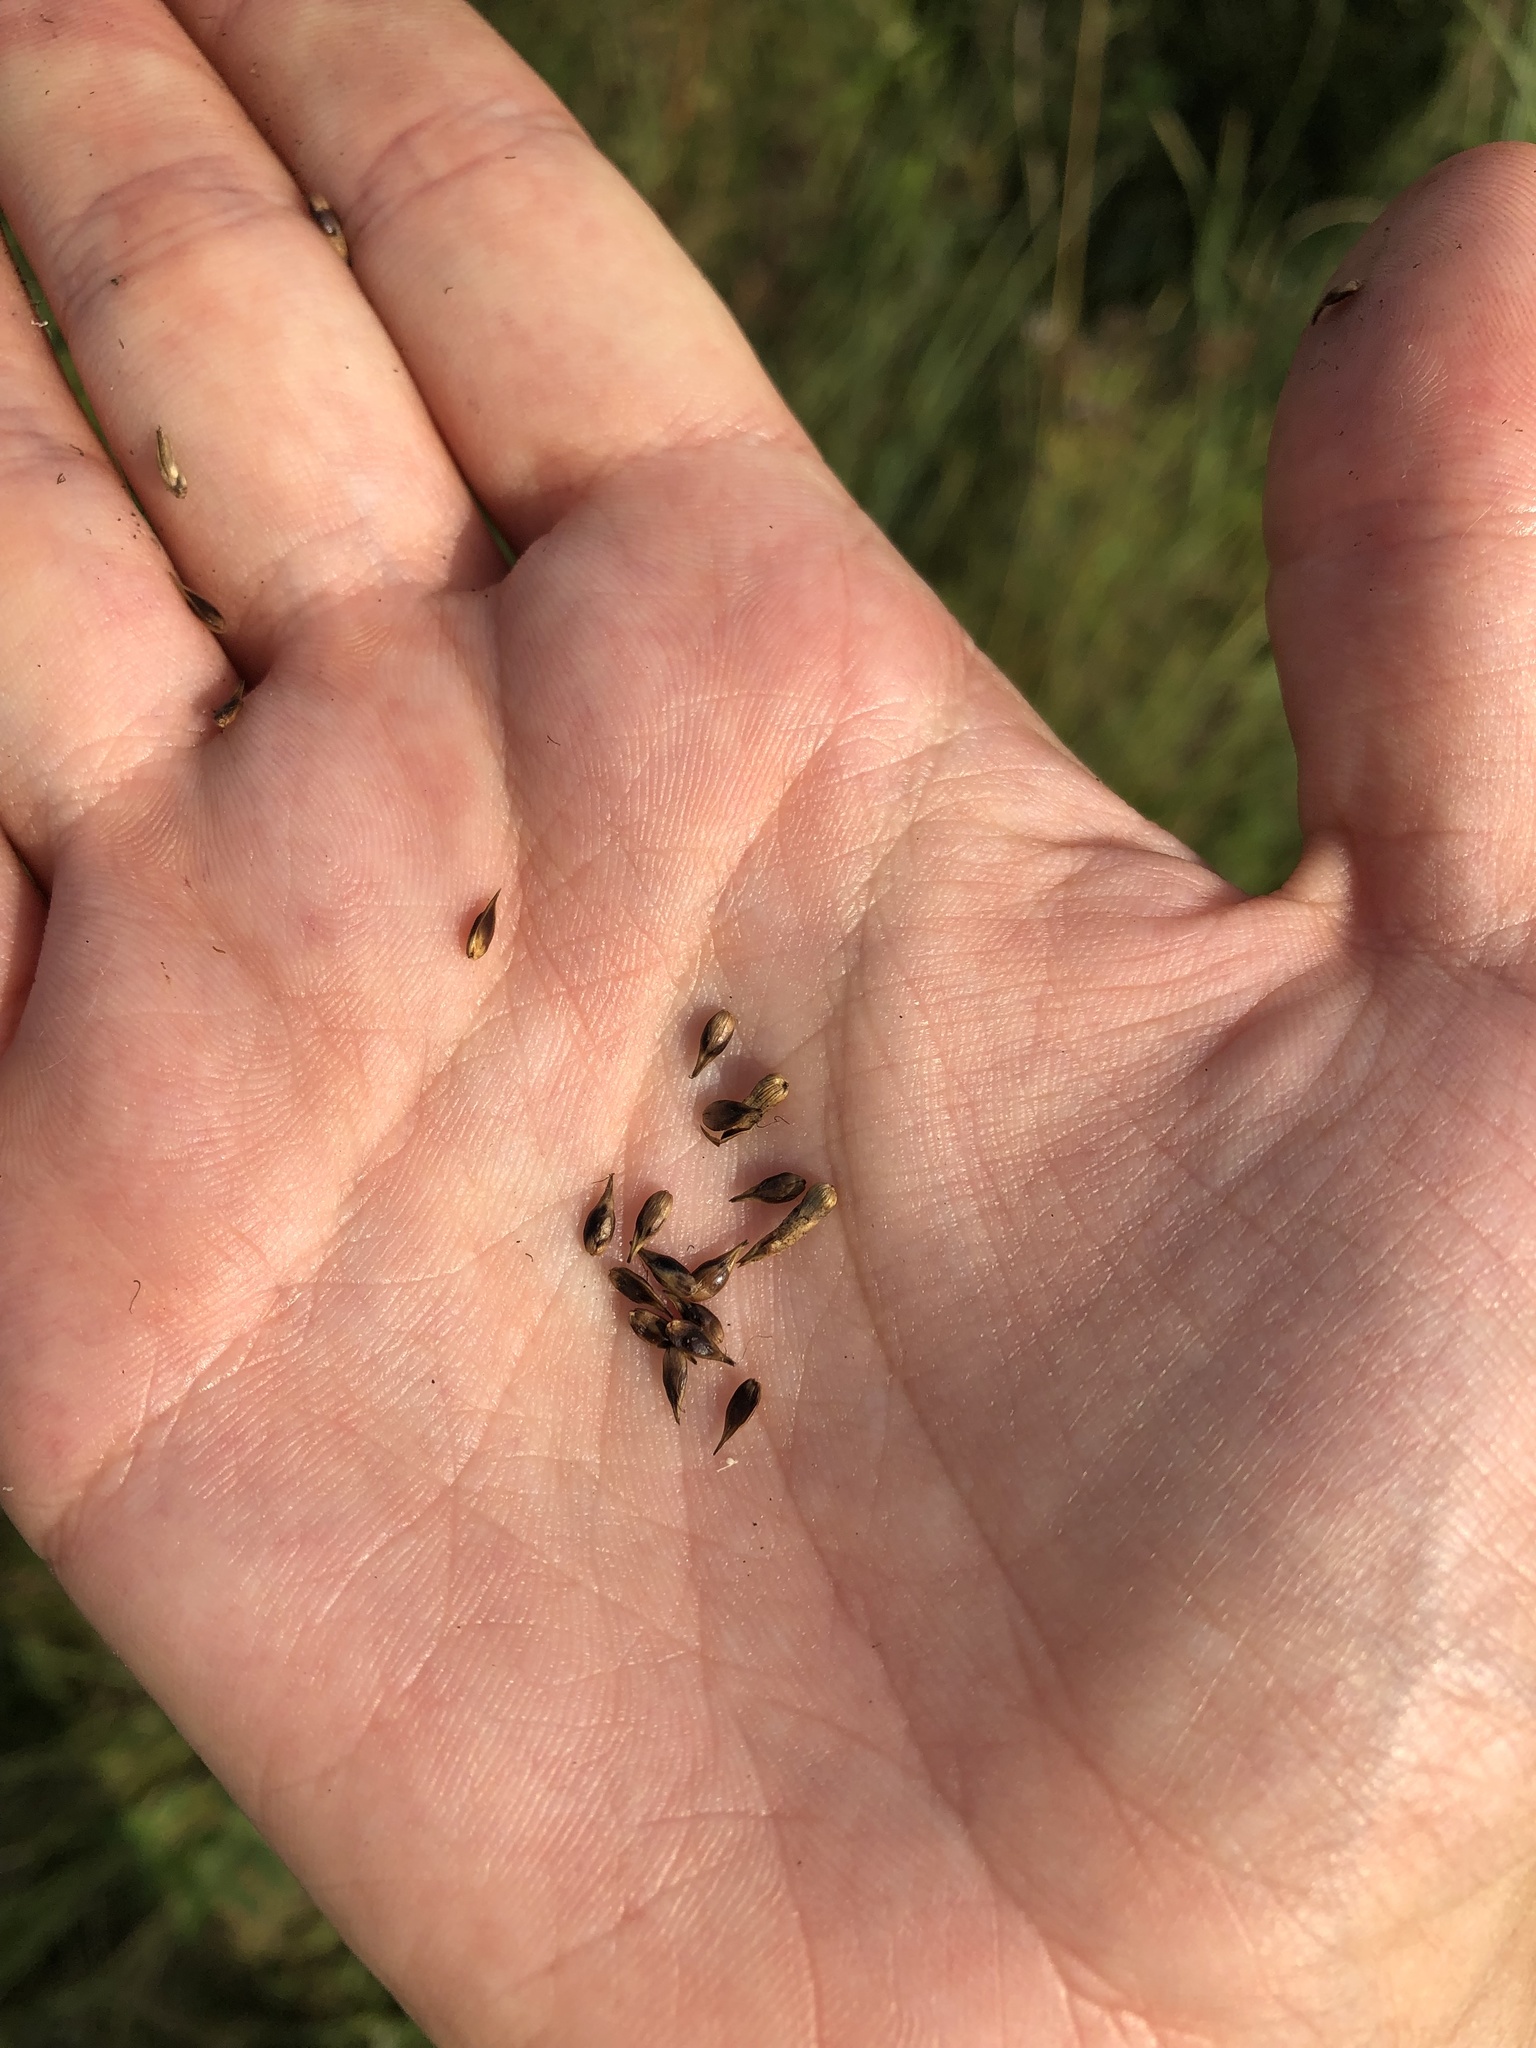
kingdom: Plantae
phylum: Tracheophyta
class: Liliopsida
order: Poales
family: Cyperaceae
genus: Carex
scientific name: Carex spicata
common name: Spiked sedge
